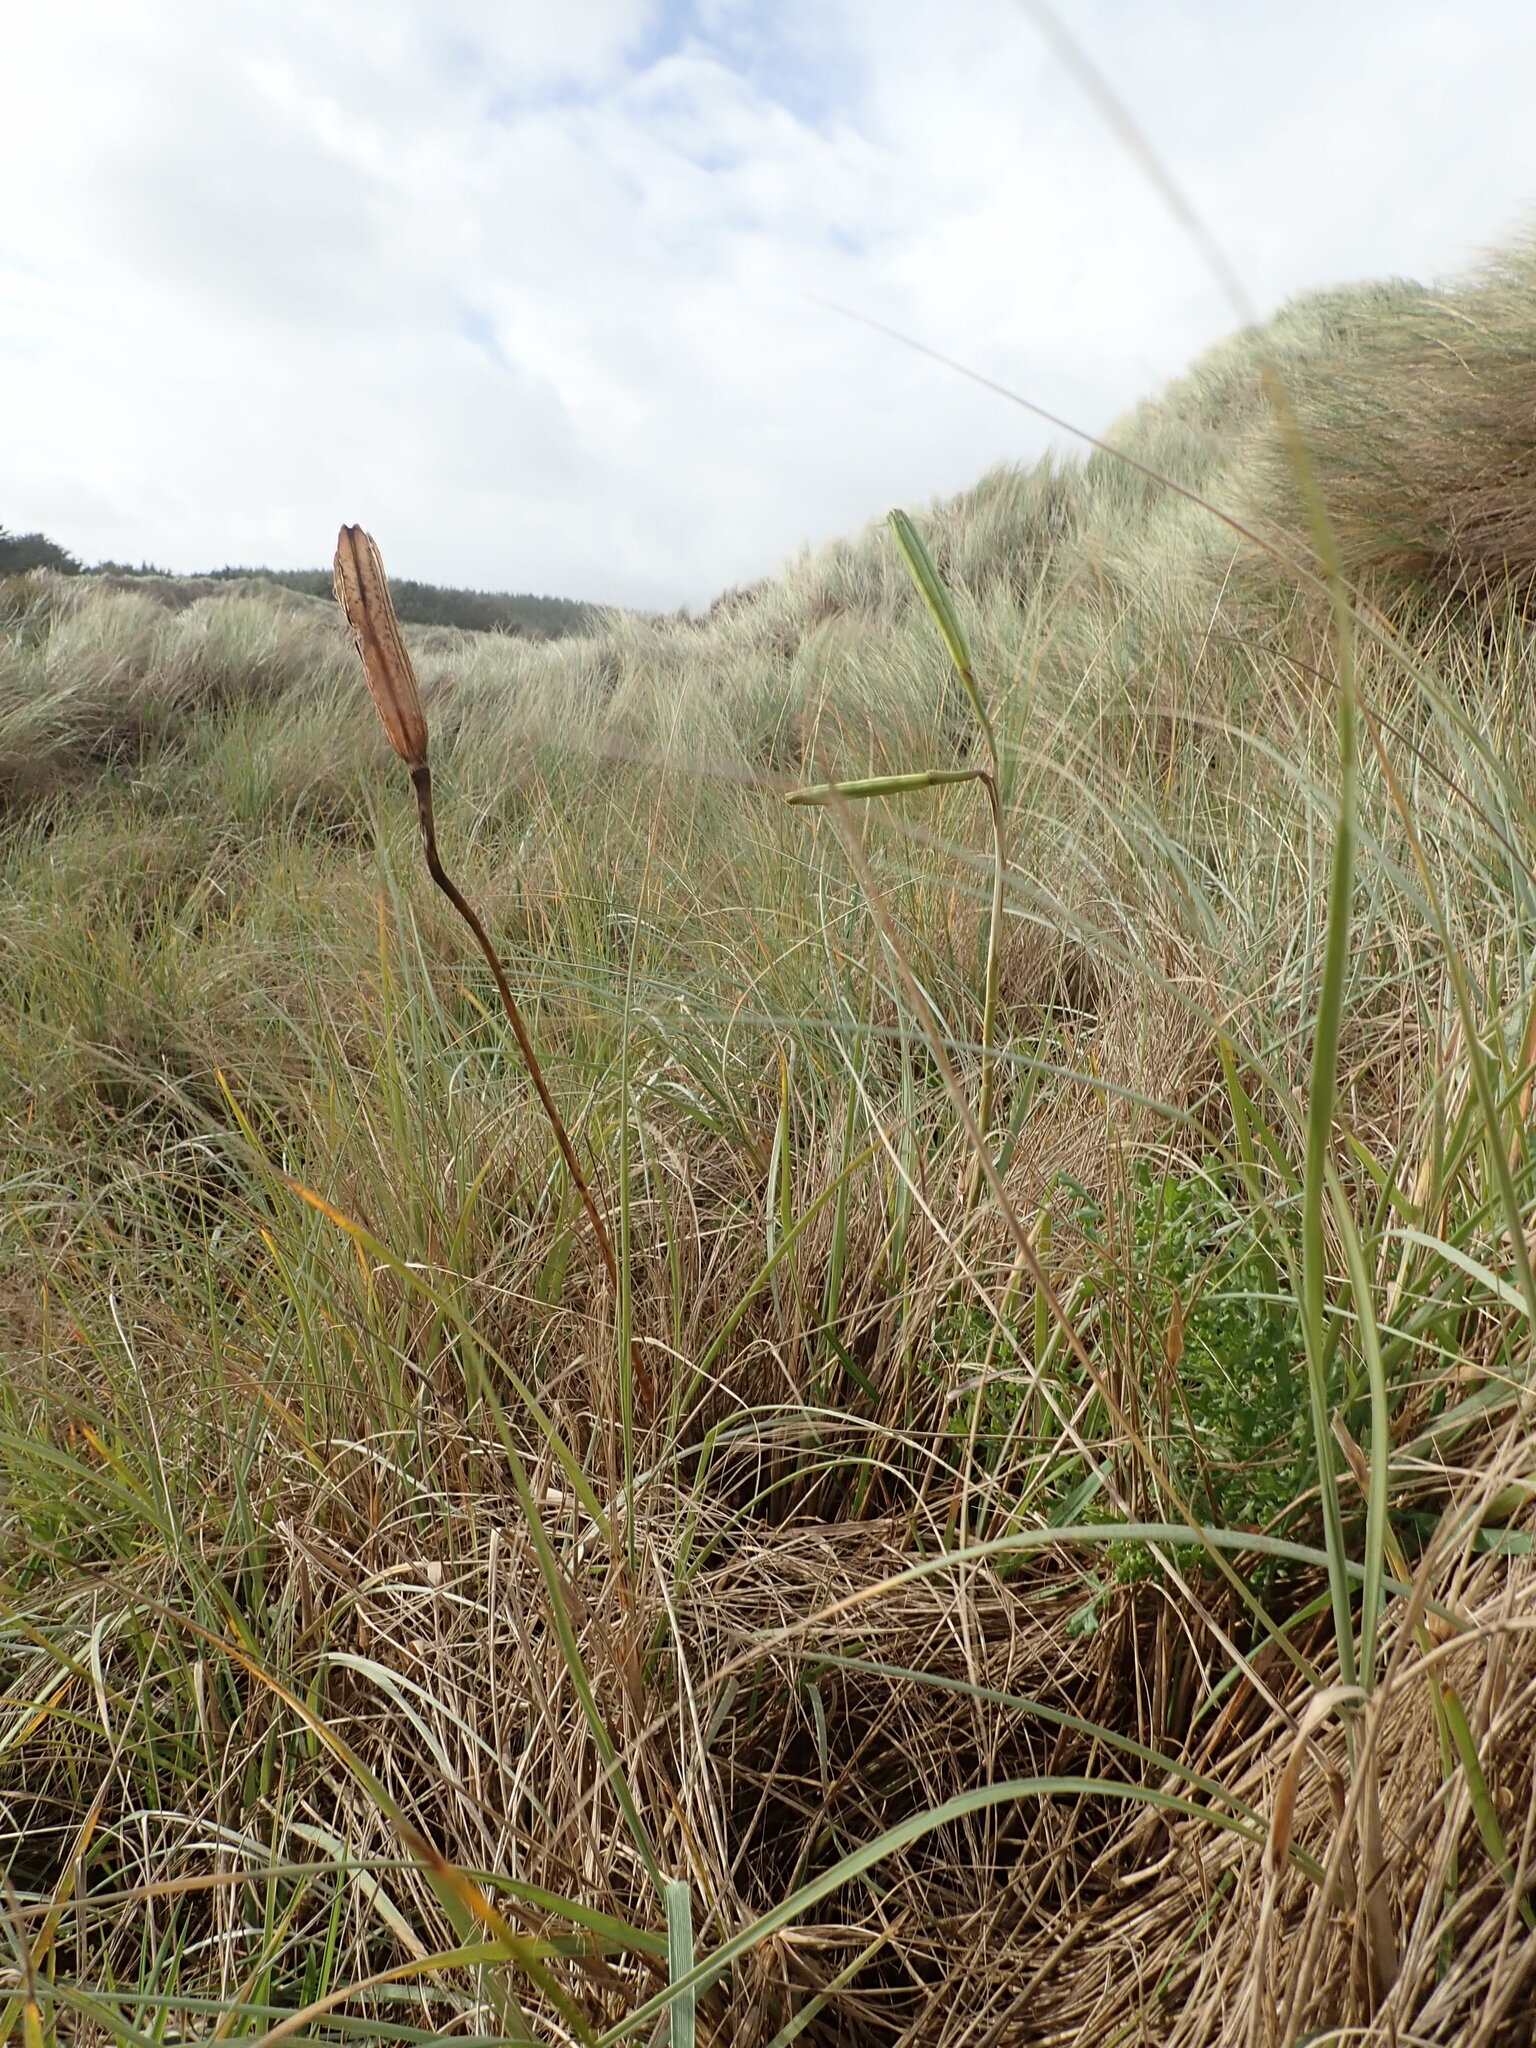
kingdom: Plantae
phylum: Tracheophyta
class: Liliopsida
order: Liliales
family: Liliaceae
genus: Lilium
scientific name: Lilium formosanum
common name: Formosa lily
